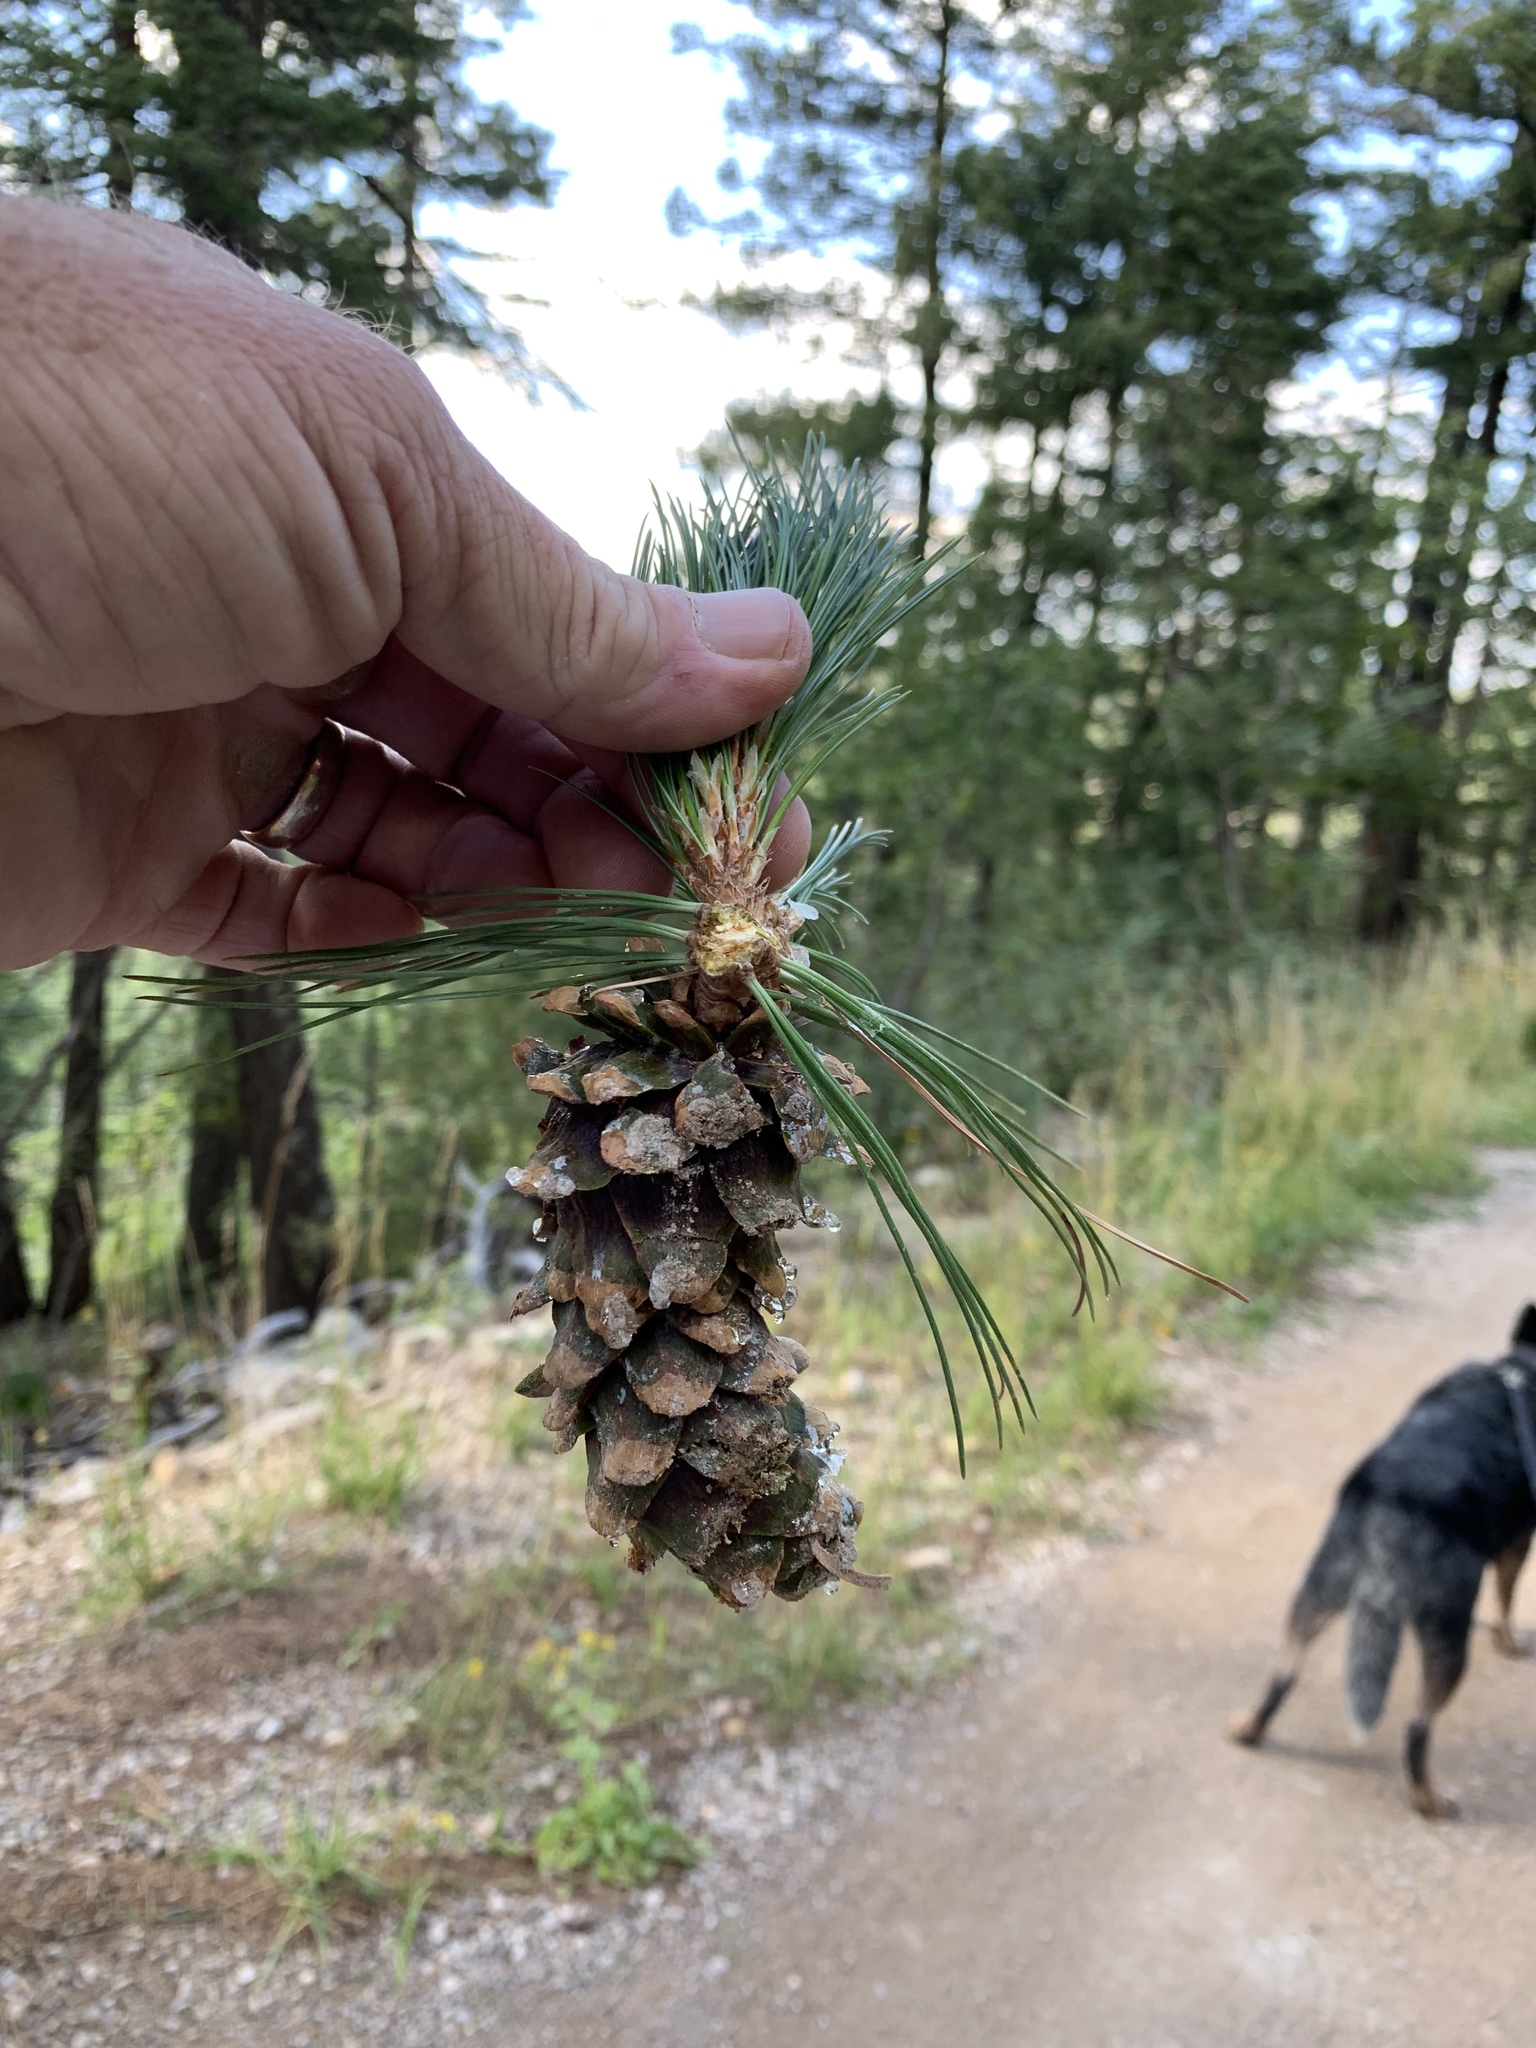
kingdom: Plantae
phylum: Tracheophyta
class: Pinopsida
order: Pinales
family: Pinaceae
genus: Pinus
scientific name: Pinus strobiformis
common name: Southwestern white pine
